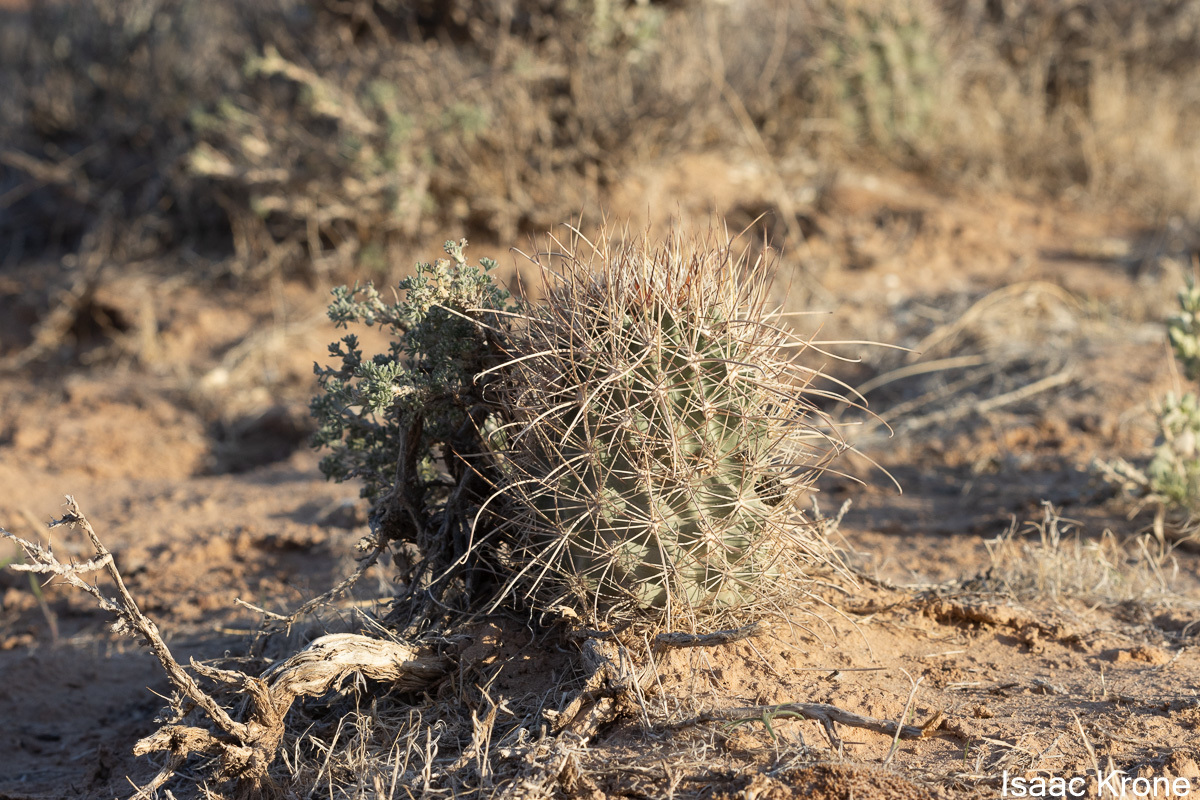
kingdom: Plantae
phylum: Tracheophyta
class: Magnoliopsida
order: Caryophyllales
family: Cactaceae
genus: Sclerocactus
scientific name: Sclerocactus parviflorus
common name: Small-flower fishhook cactus
